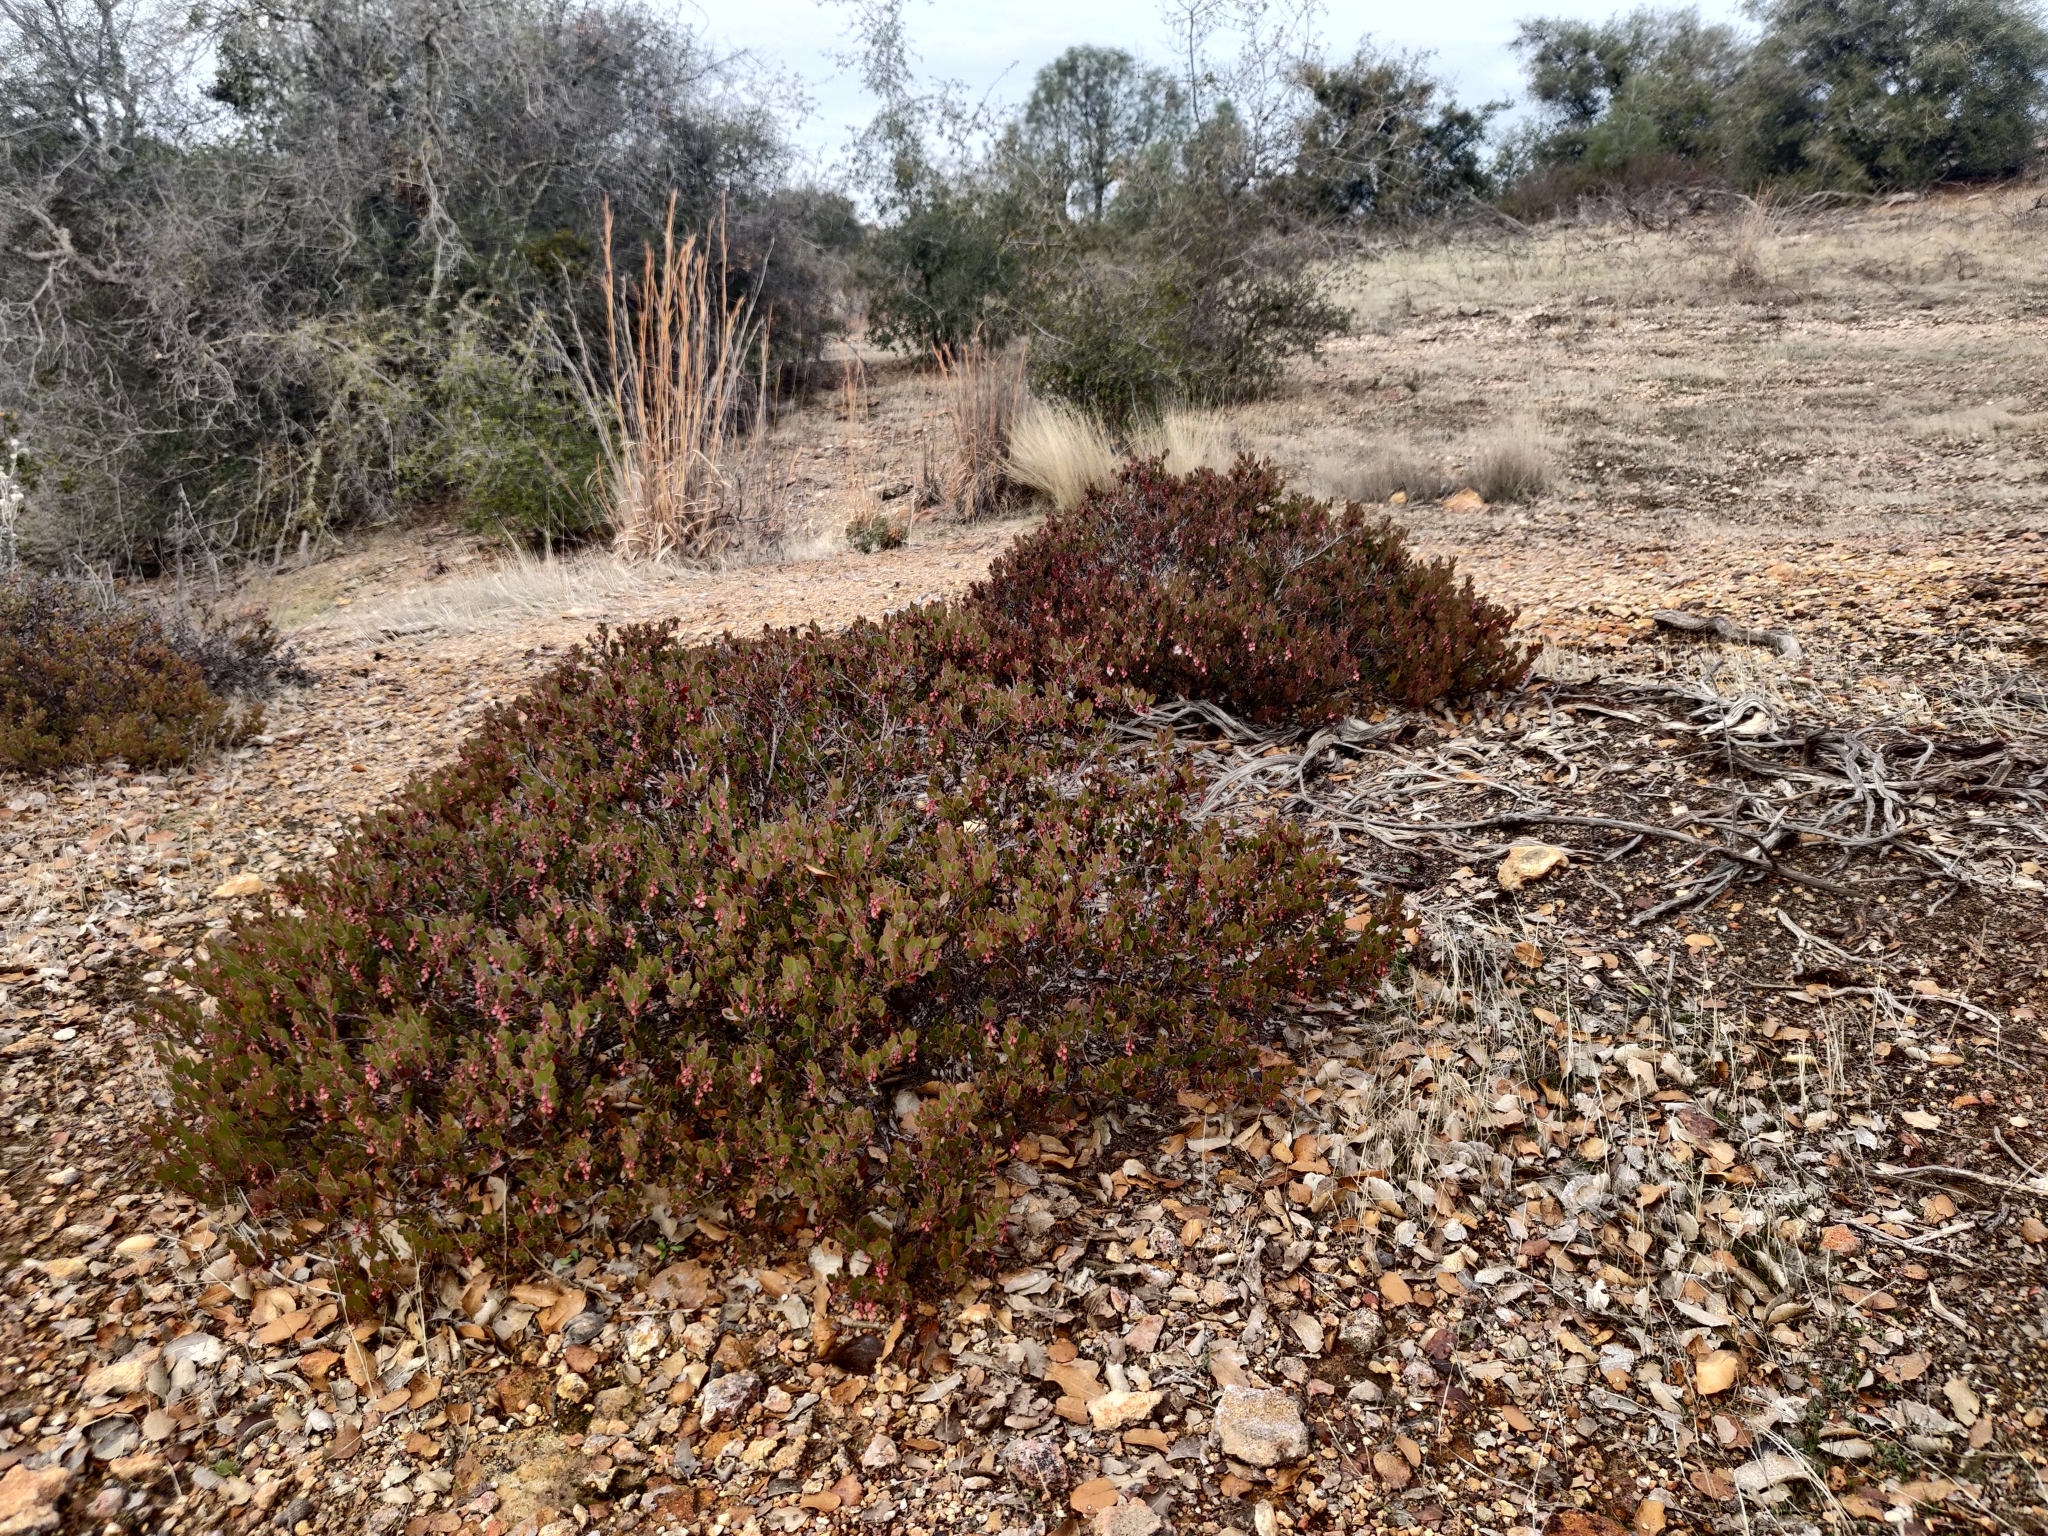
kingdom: Plantae
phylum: Tracheophyta
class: Magnoliopsida
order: Ericales
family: Ericaceae
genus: Arctostaphylos
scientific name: Arctostaphylos myrtifolia
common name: Ione manzanita
